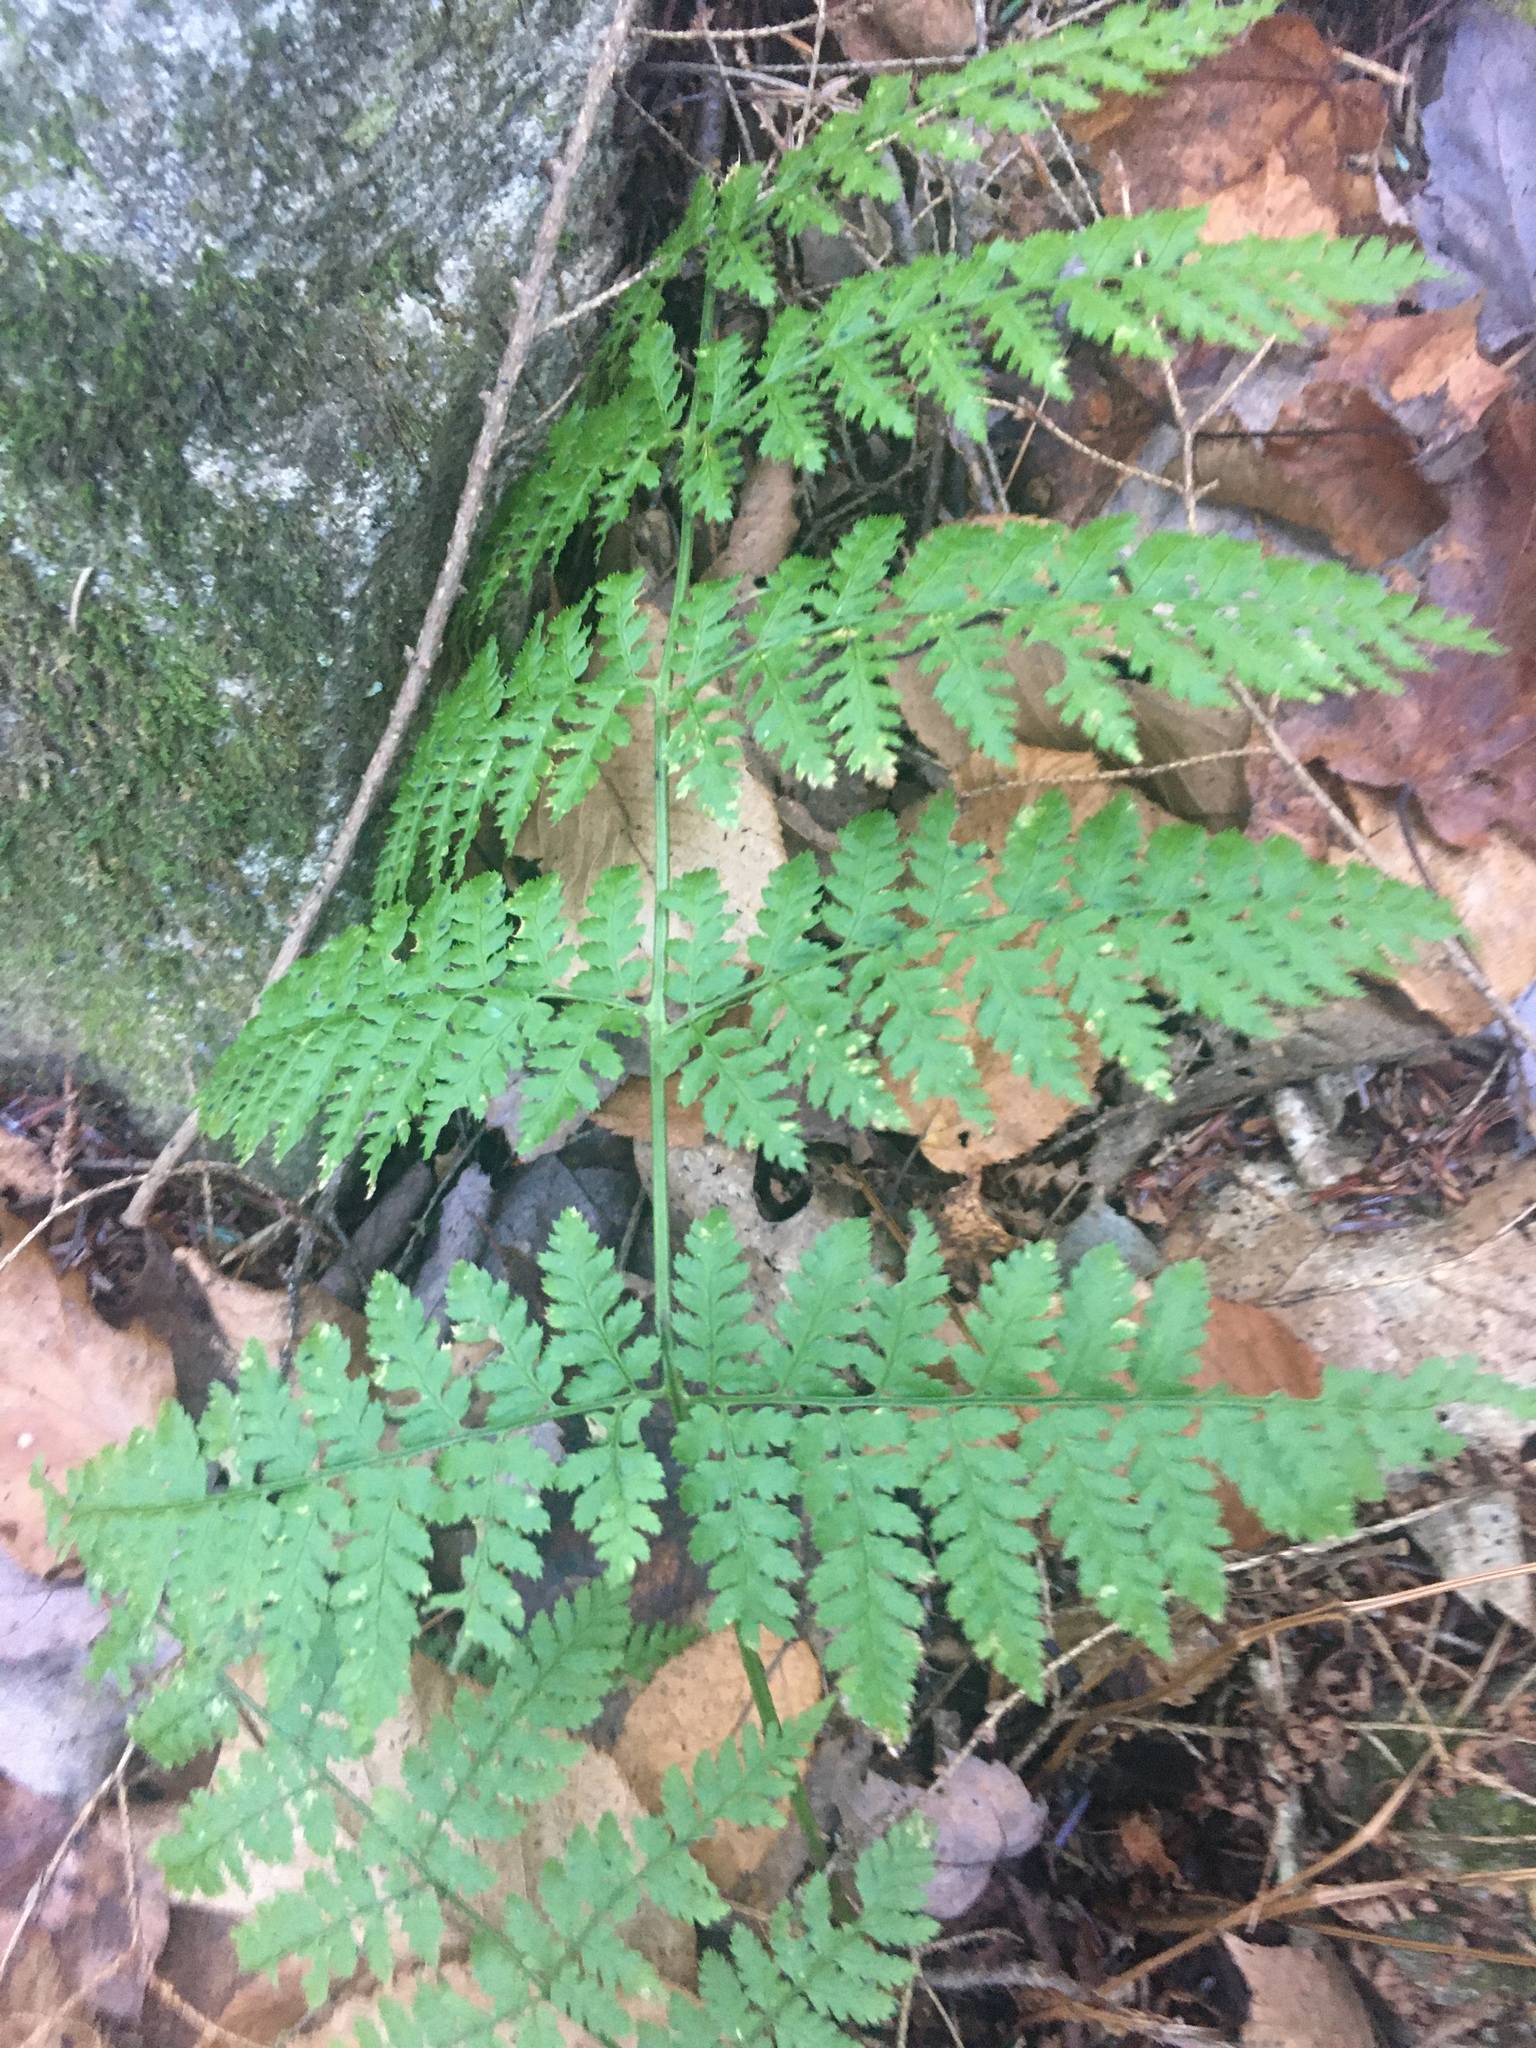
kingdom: Plantae
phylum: Tracheophyta
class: Polypodiopsida
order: Polypodiales
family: Dryopteridaceae
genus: Dryopteris
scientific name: Dryopteris intermedia
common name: Evergreen wood fern
